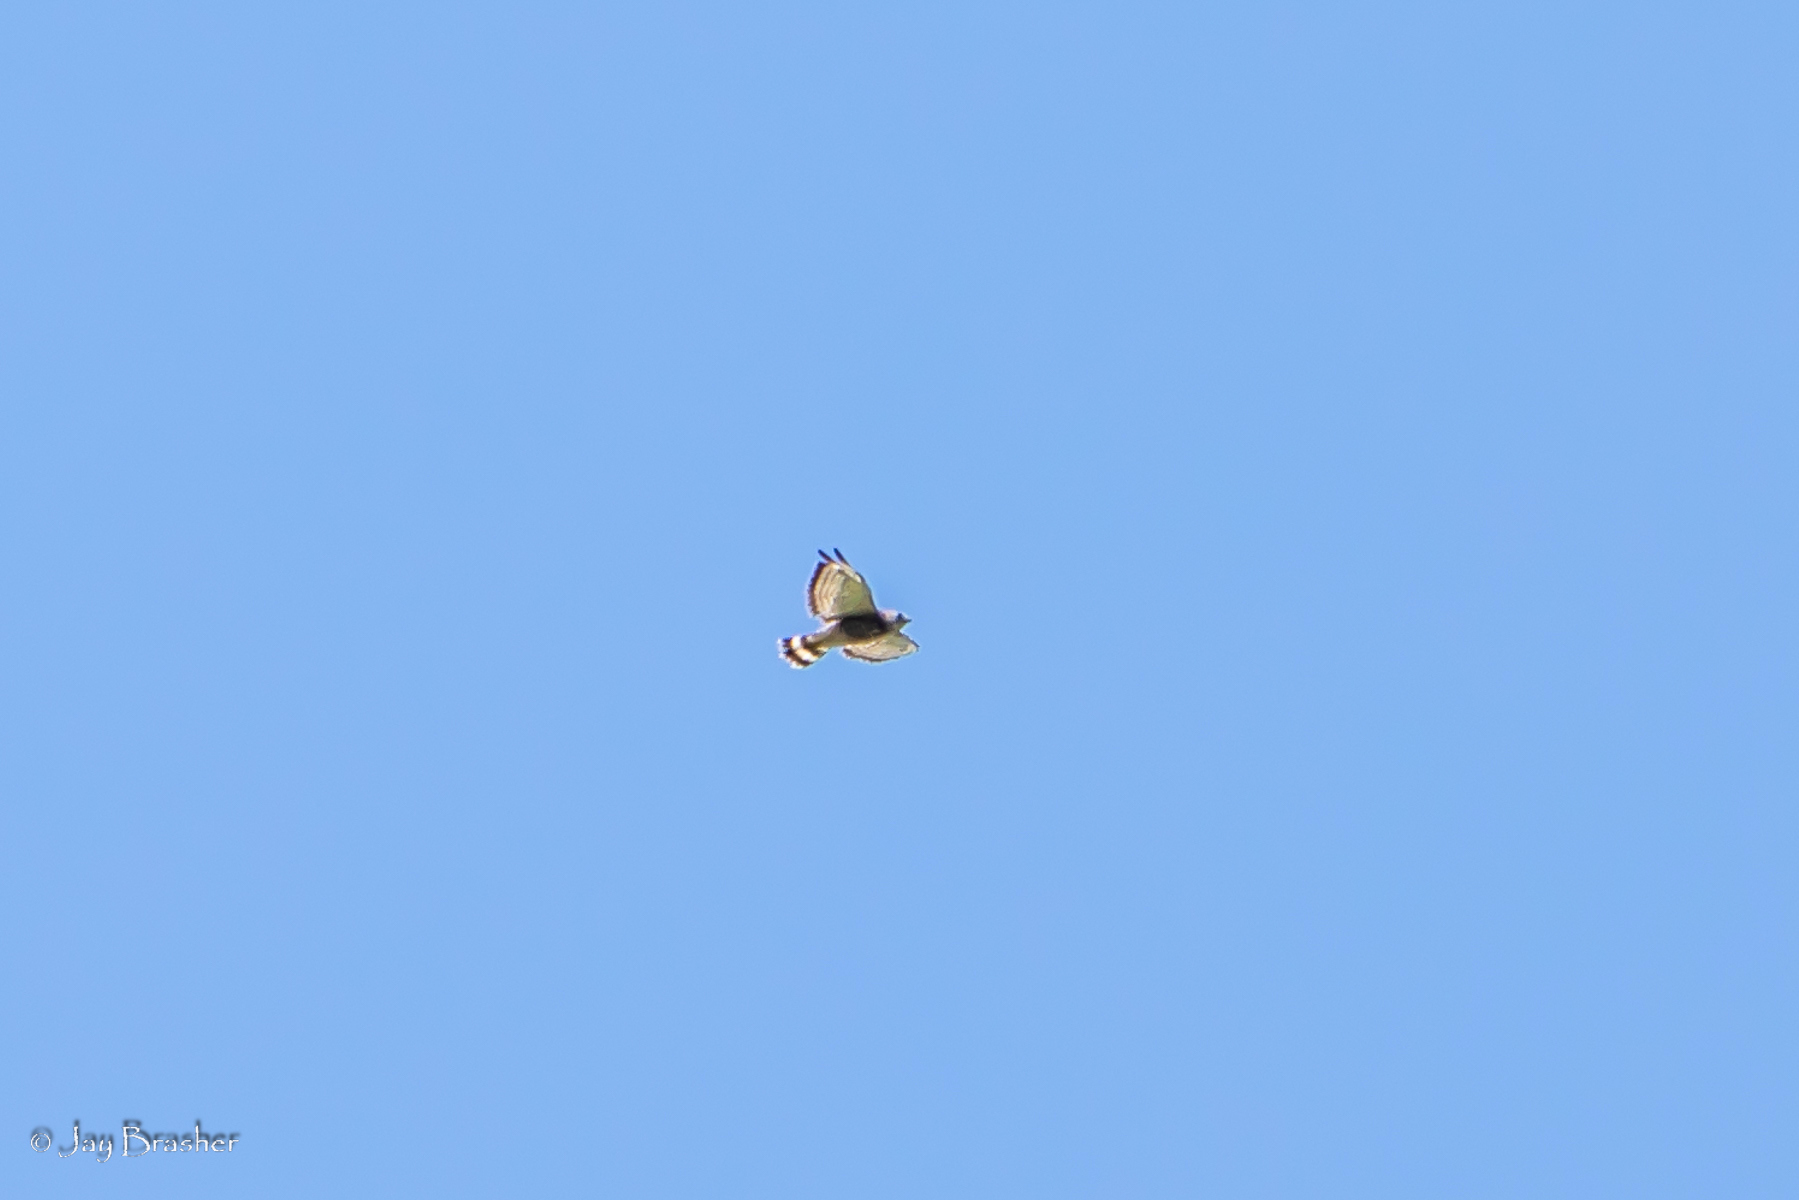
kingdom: Animalia
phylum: Chordata
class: Aves
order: Accipitriformes
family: Accipitridae
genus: Buteo
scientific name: Buteo platypterus
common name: Broad-winged hawk
